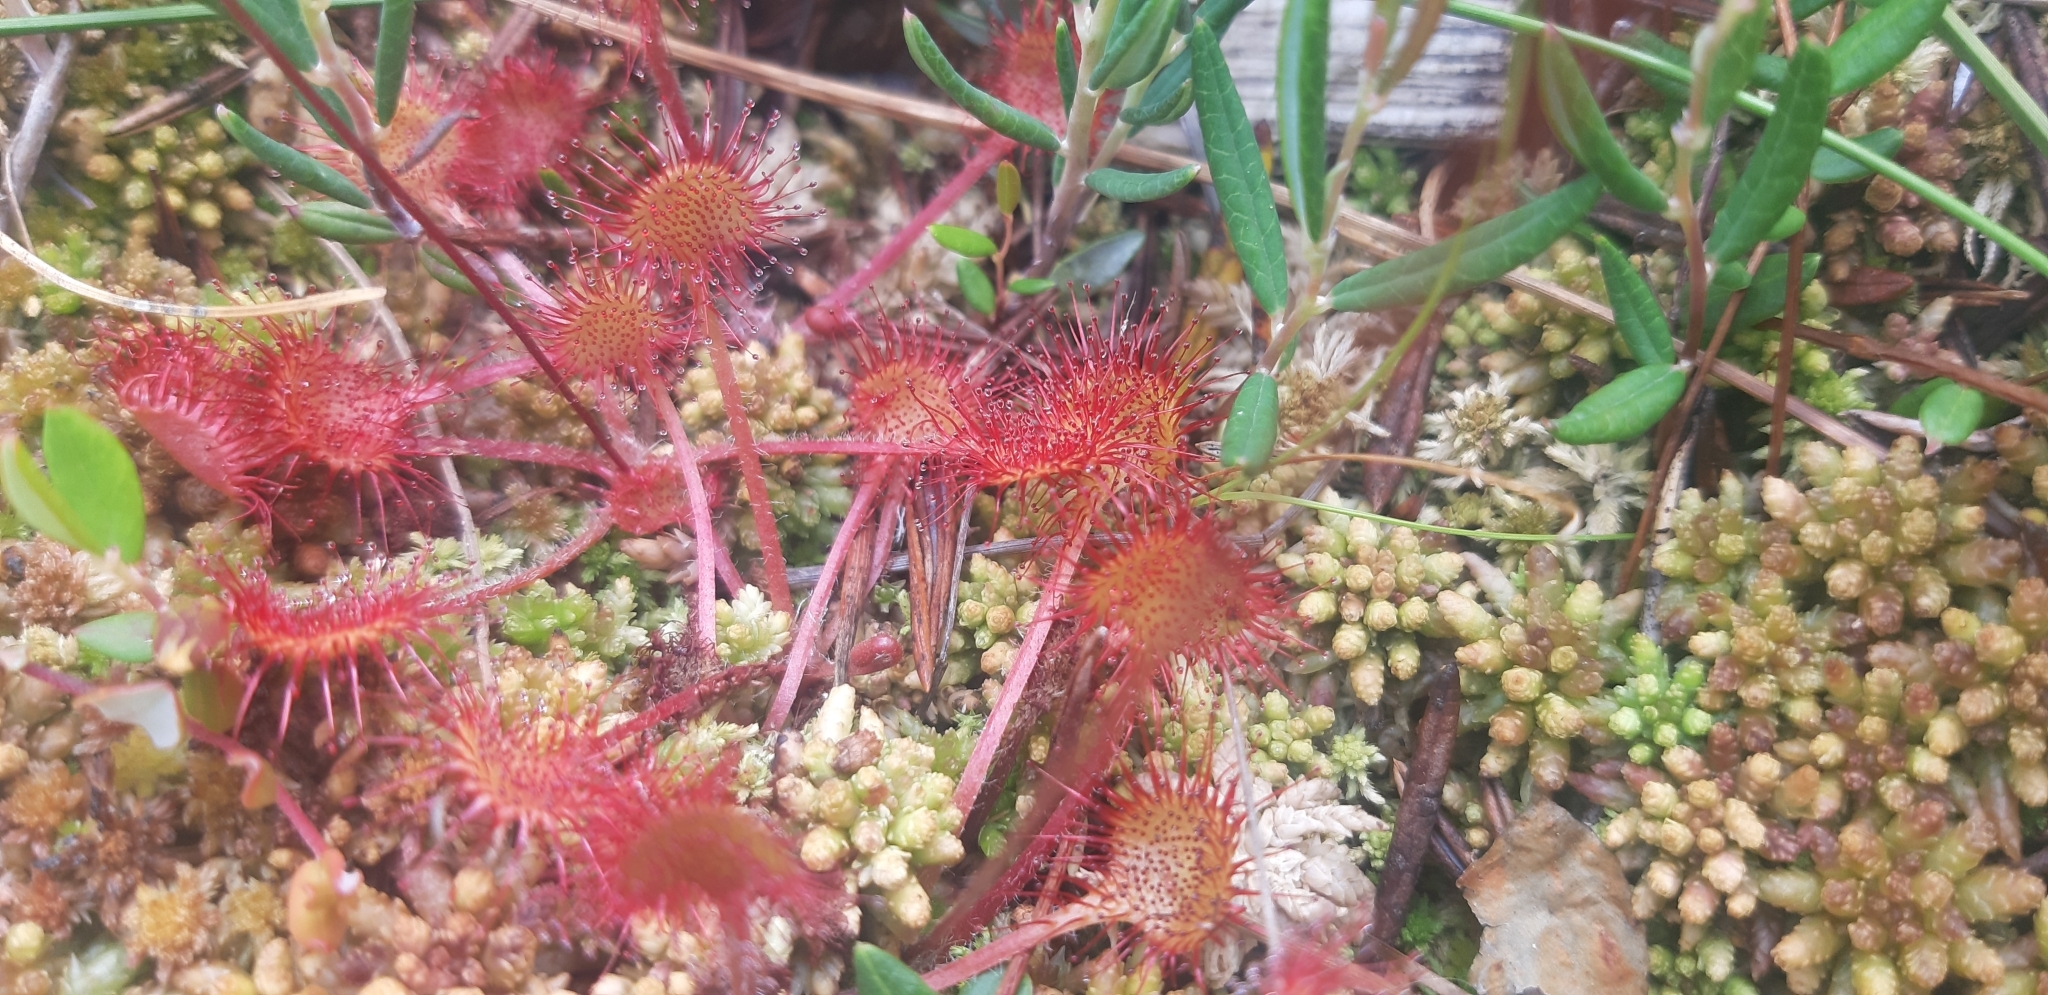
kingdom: Plantae
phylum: Tracheophyta
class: Magnoliopsida
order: Caryophyllales
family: Droseraceae
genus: Drosera
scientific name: Drosera rotundifolia
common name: Round-leaved sundew
